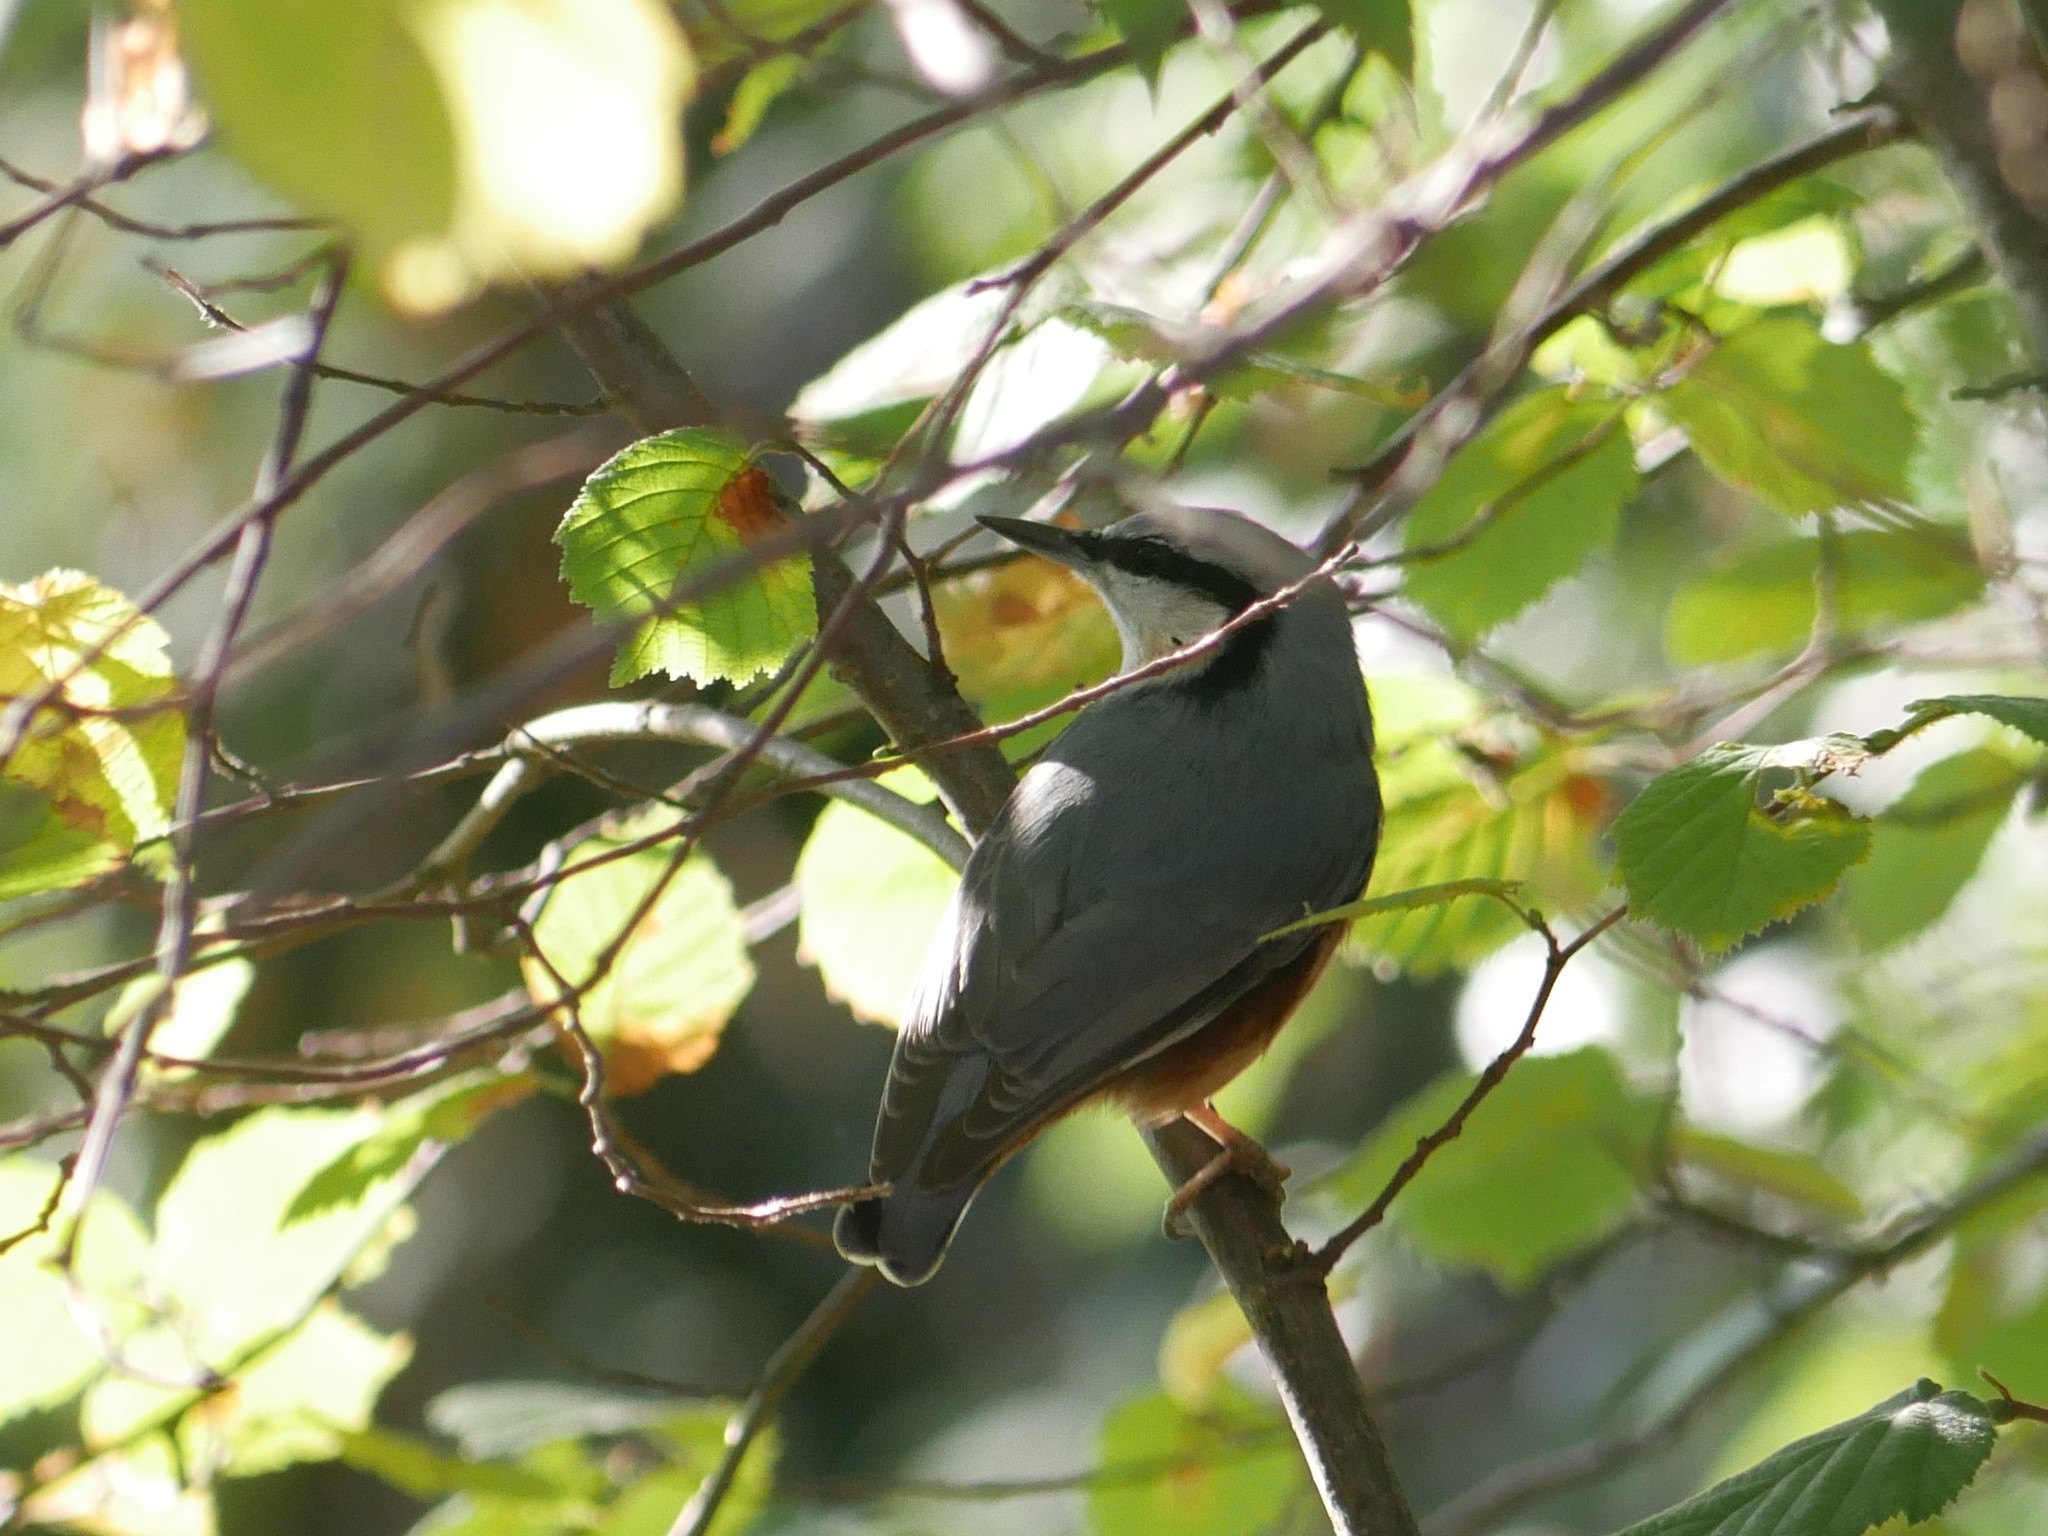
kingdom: Animalia
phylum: Chordata
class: Aves
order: Passeriformes
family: Sittidae
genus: Sitta
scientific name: Sitta europaea
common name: Eurasian nuthatch
